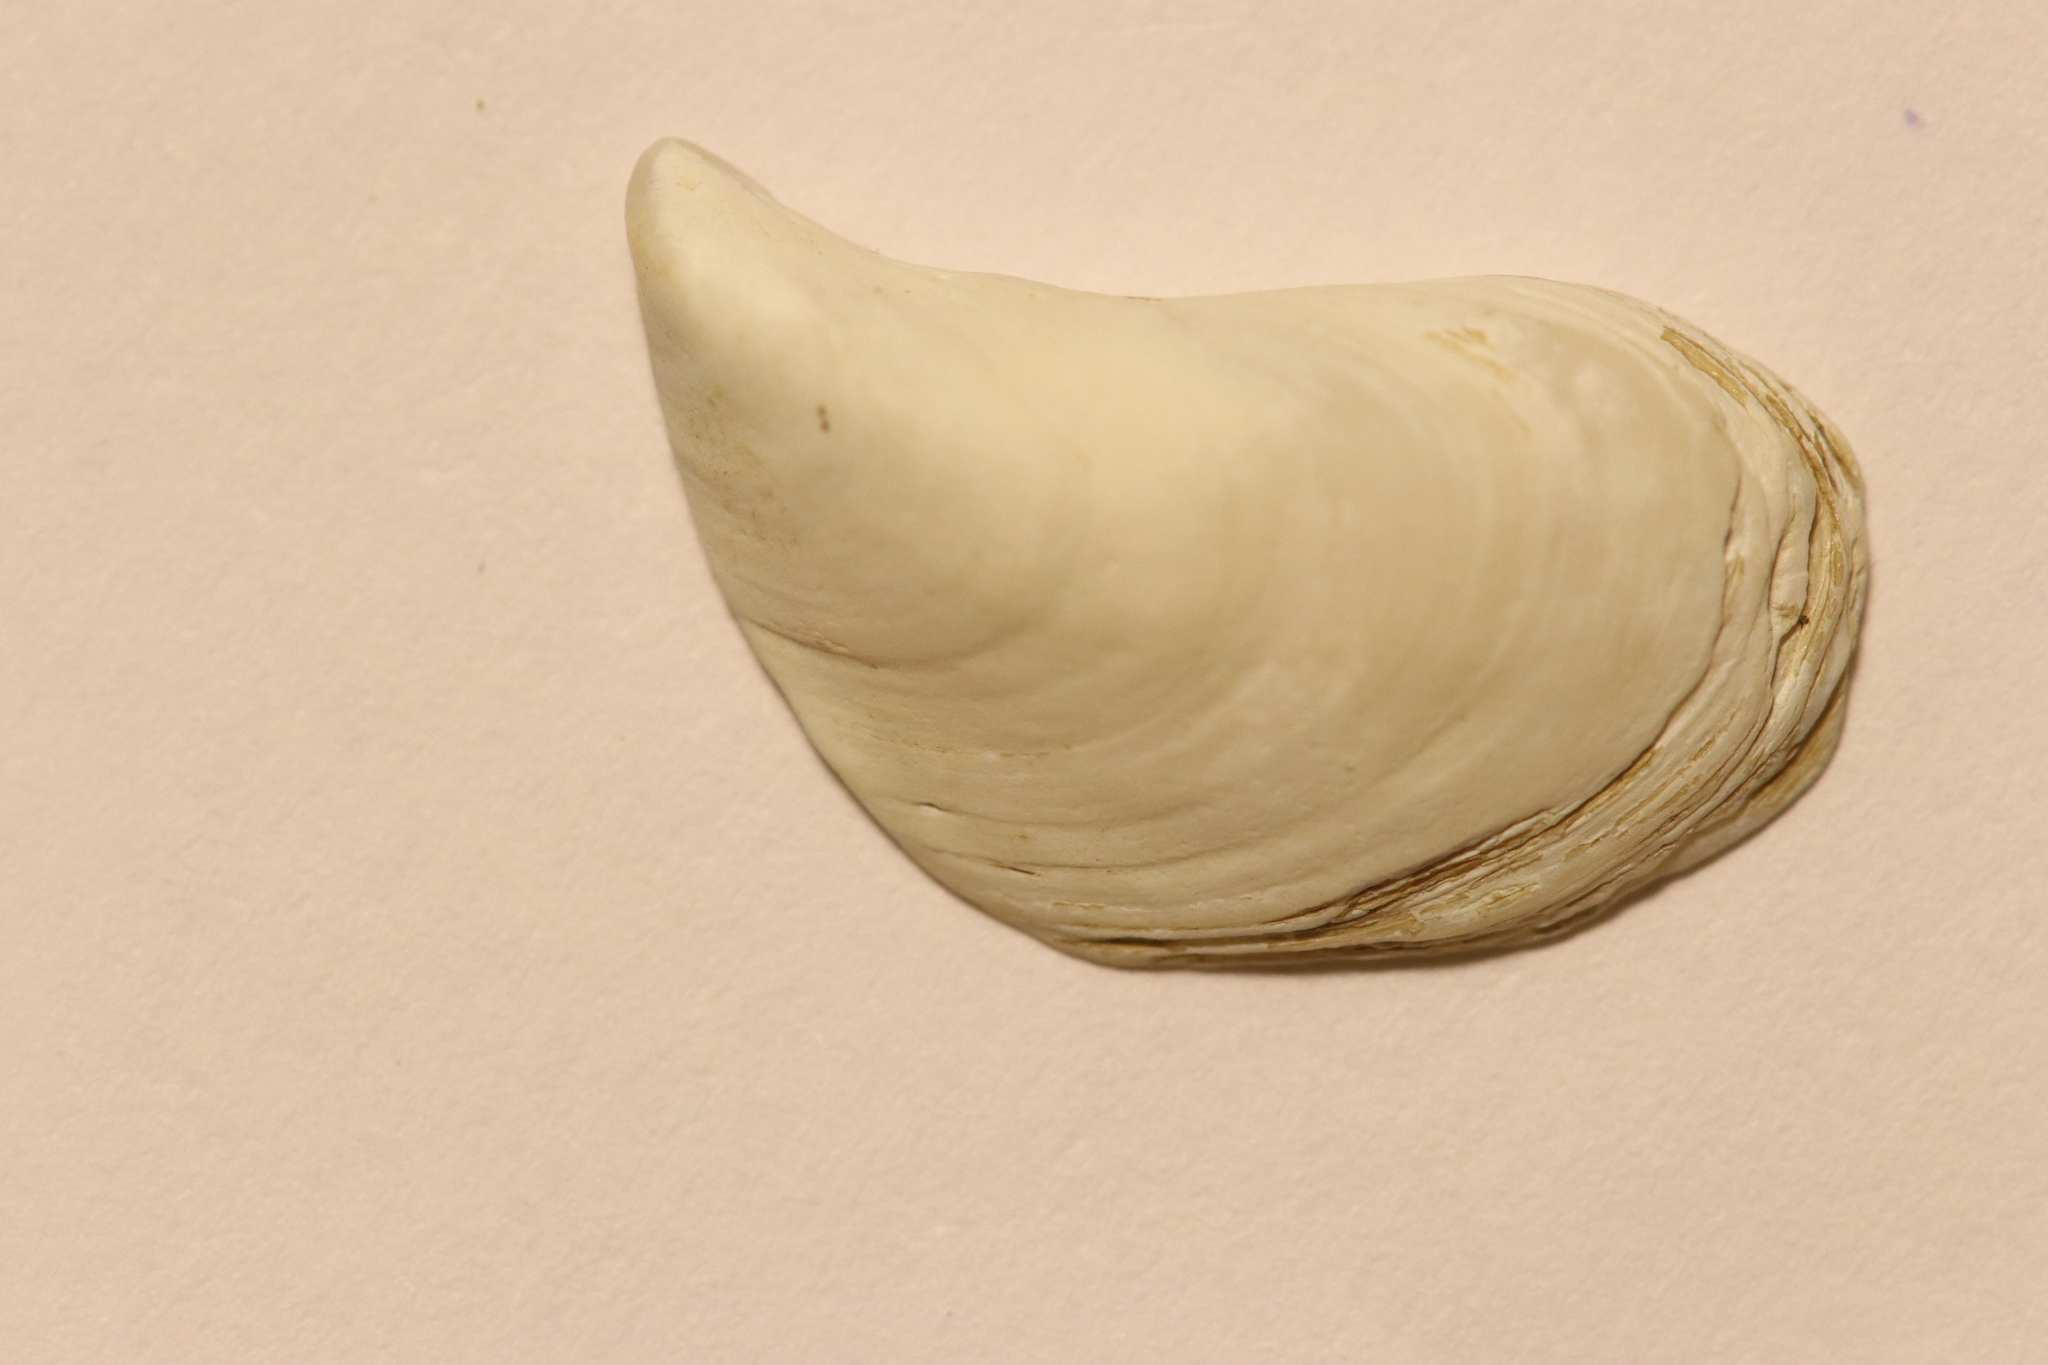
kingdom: Animalia
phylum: Mollusca
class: Bivalvia
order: Myida
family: Dreissenidae
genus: Dreissena
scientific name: Dreissena bugensis
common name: Quagga mussel
